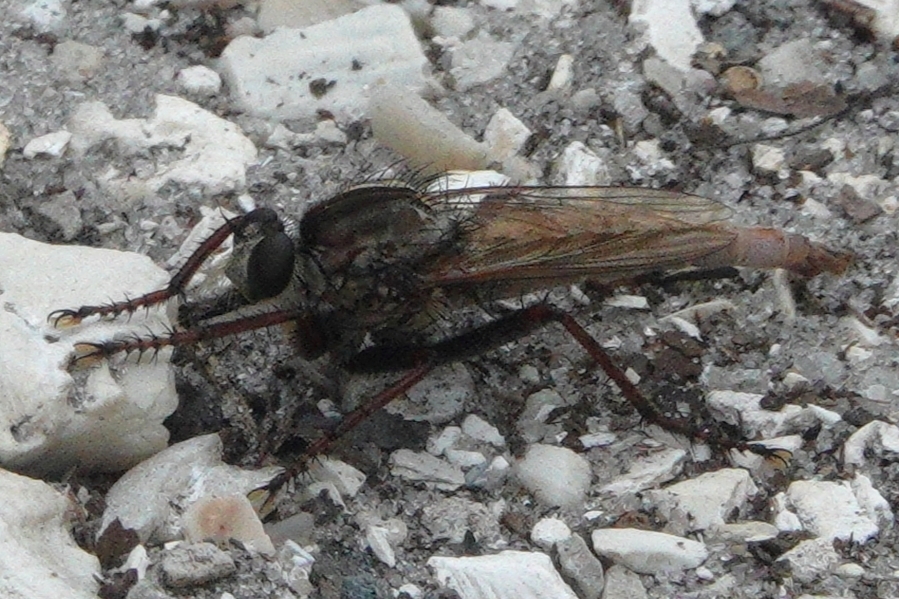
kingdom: Animalia
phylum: Arthropoda
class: Insecta
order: Diptera
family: Asilidae
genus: Proctacanthus
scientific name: Proctacanthus brevipennis
